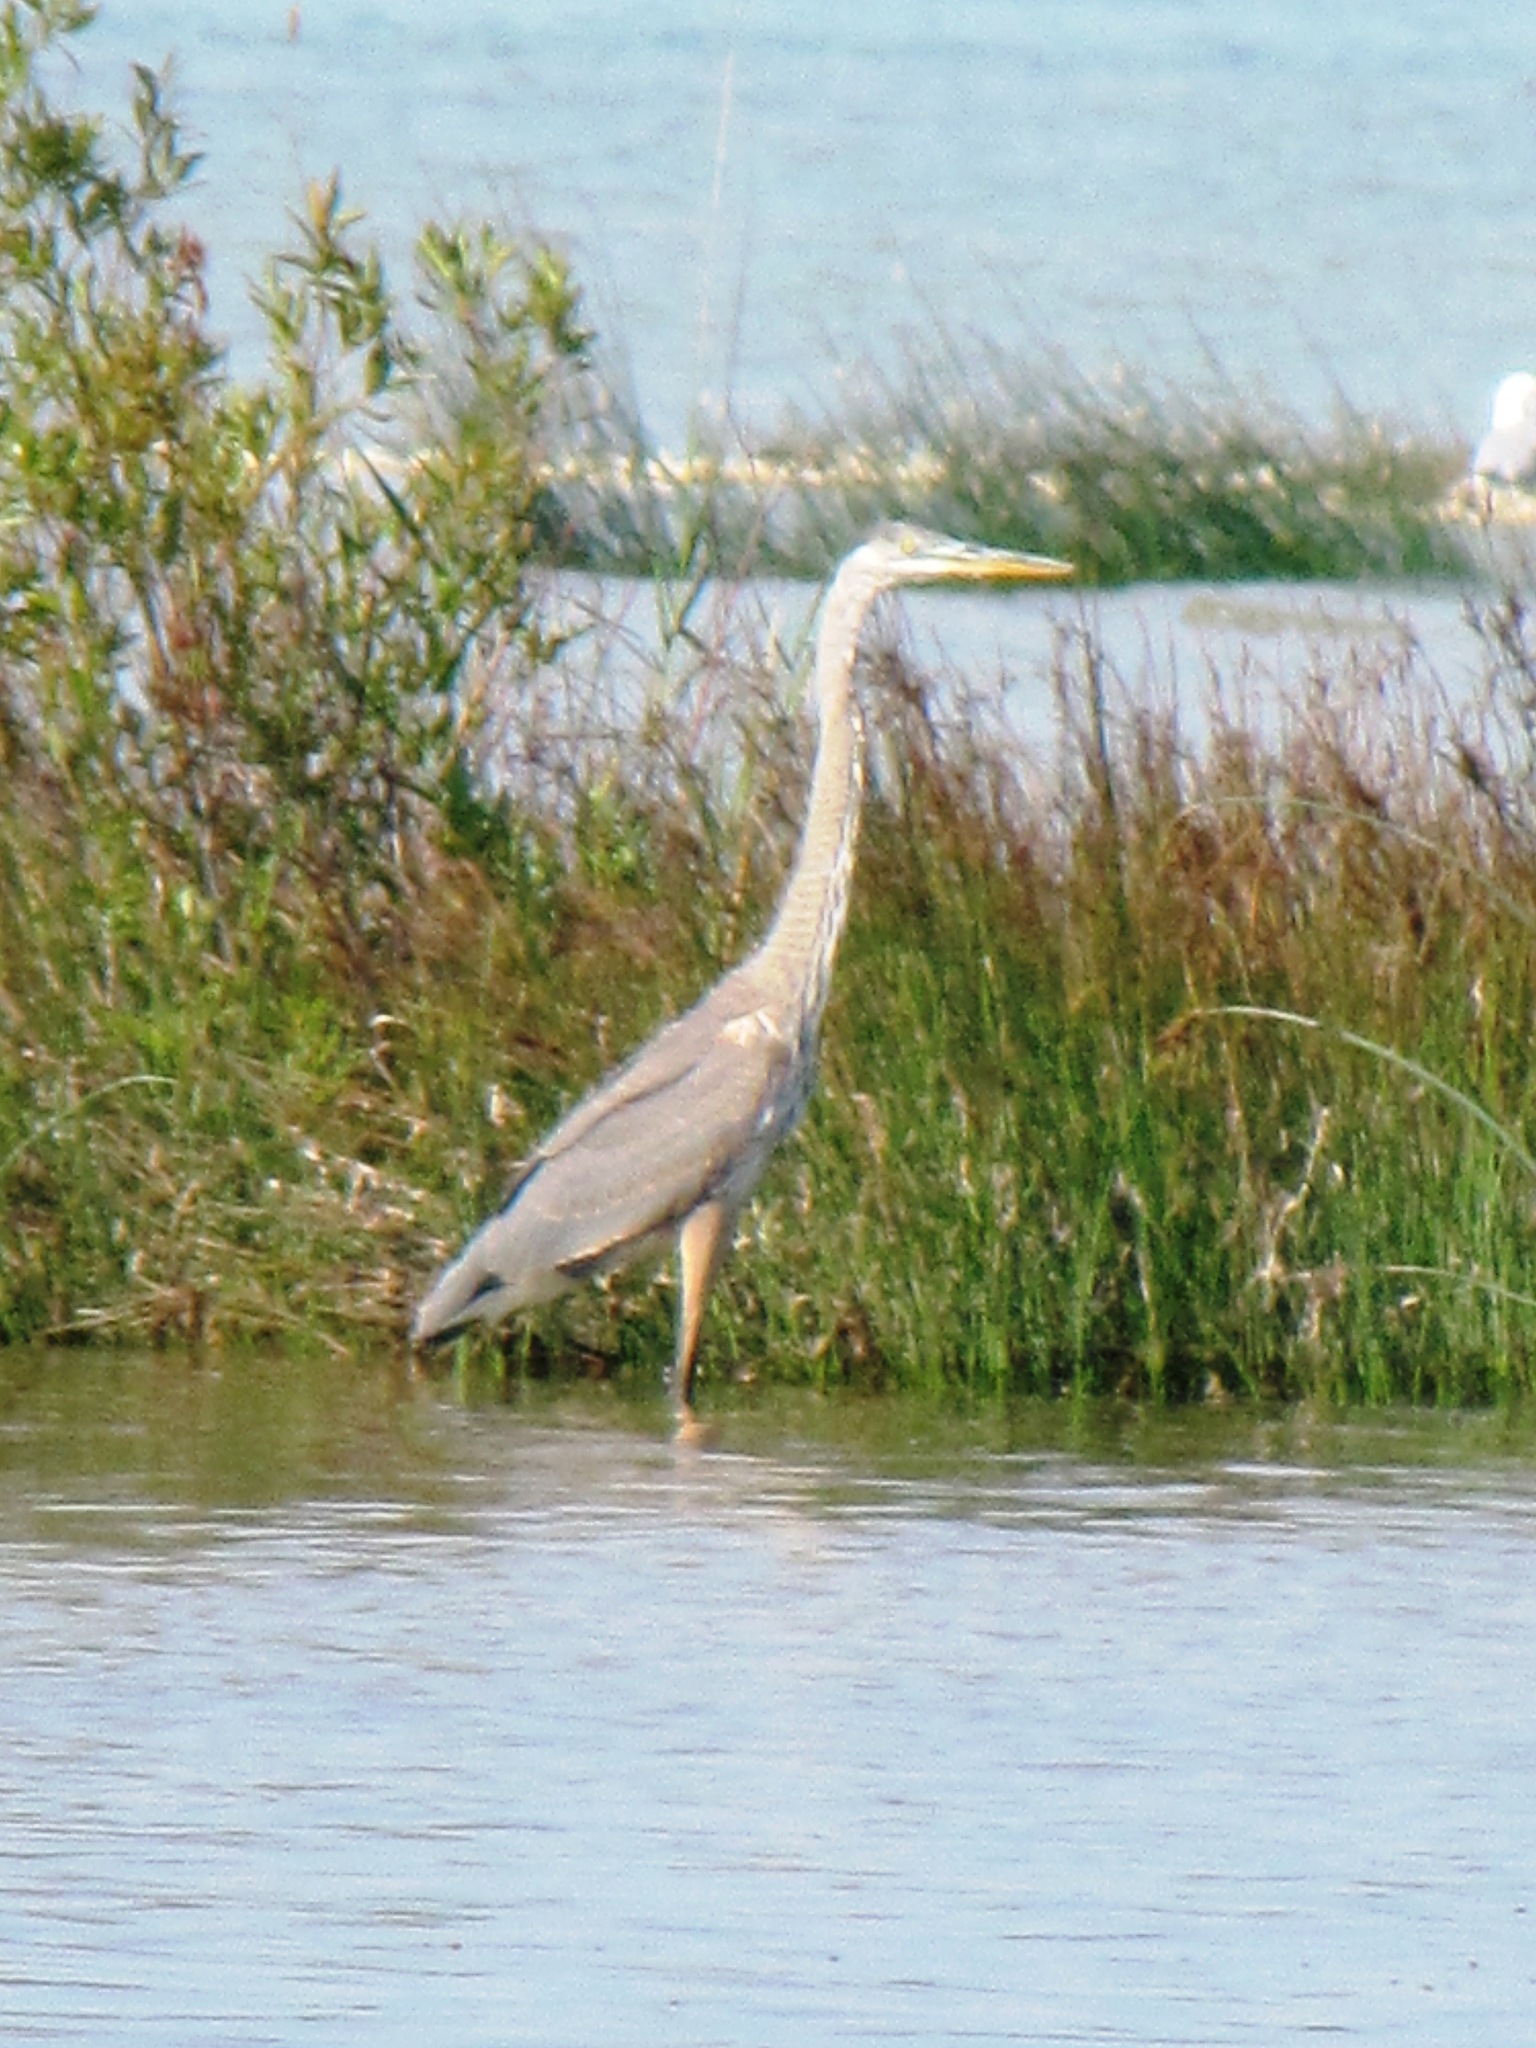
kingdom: Animalia
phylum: Chordata
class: Aves
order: Pelecaniformes
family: Ardeidae
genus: Ardea
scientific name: Ardea herodias
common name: Great blue heron
